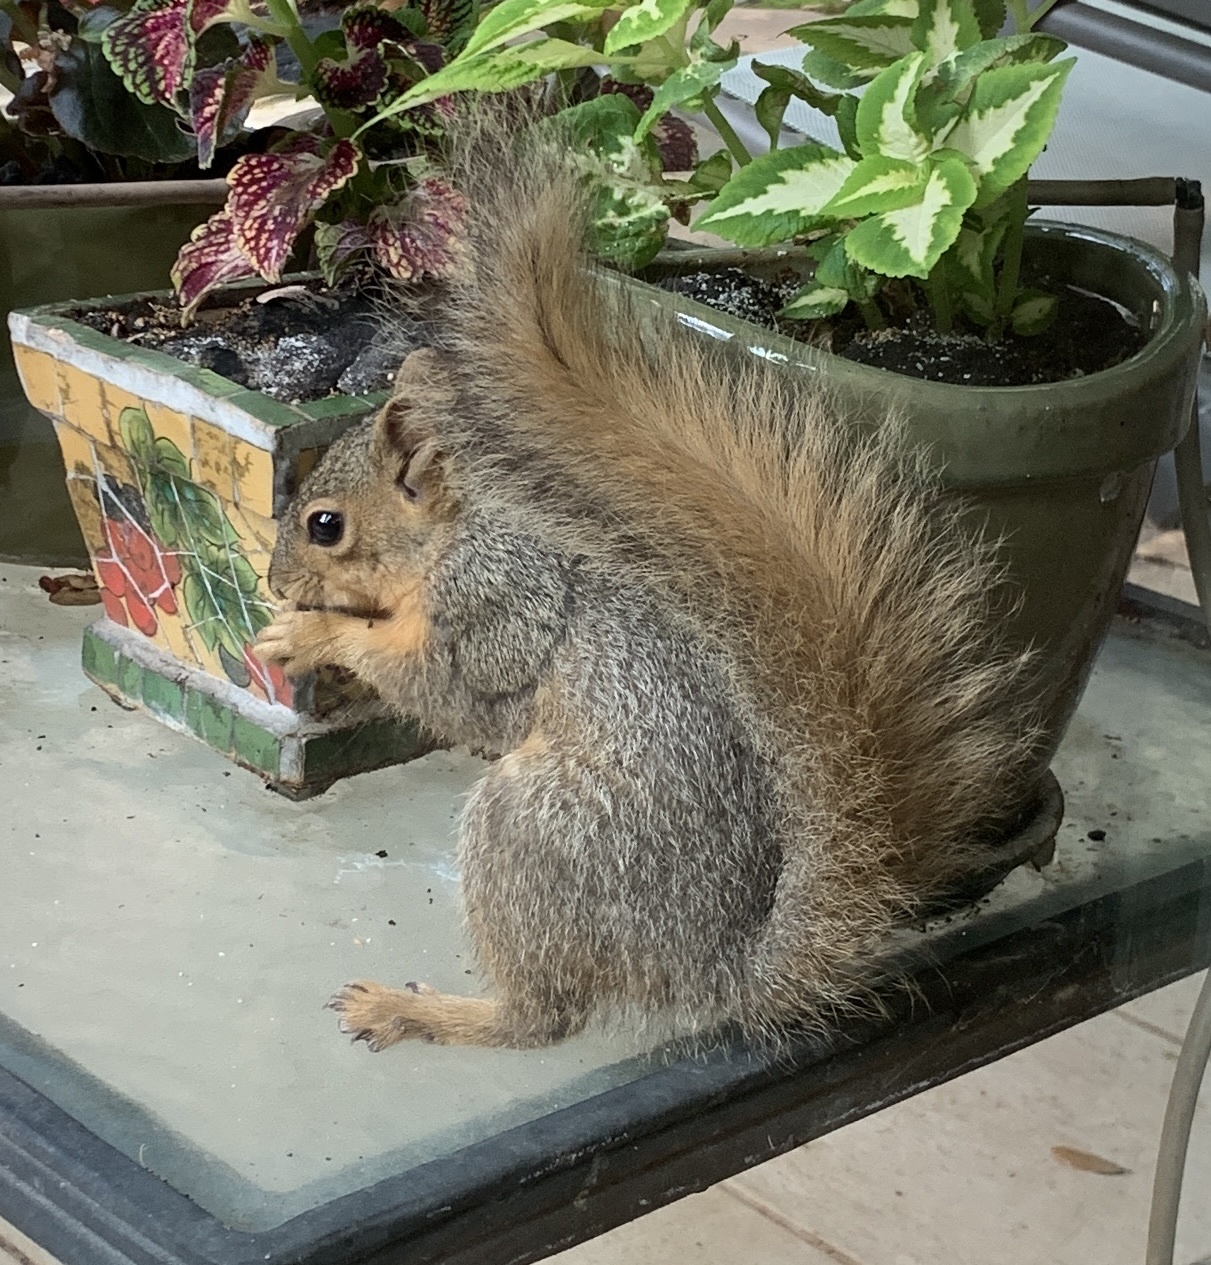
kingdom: Animalia
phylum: Chordata
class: Mammalia
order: Rodentia
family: Sciuridae
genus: Sciurus
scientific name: Sciurus niger
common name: Fox squirrel
